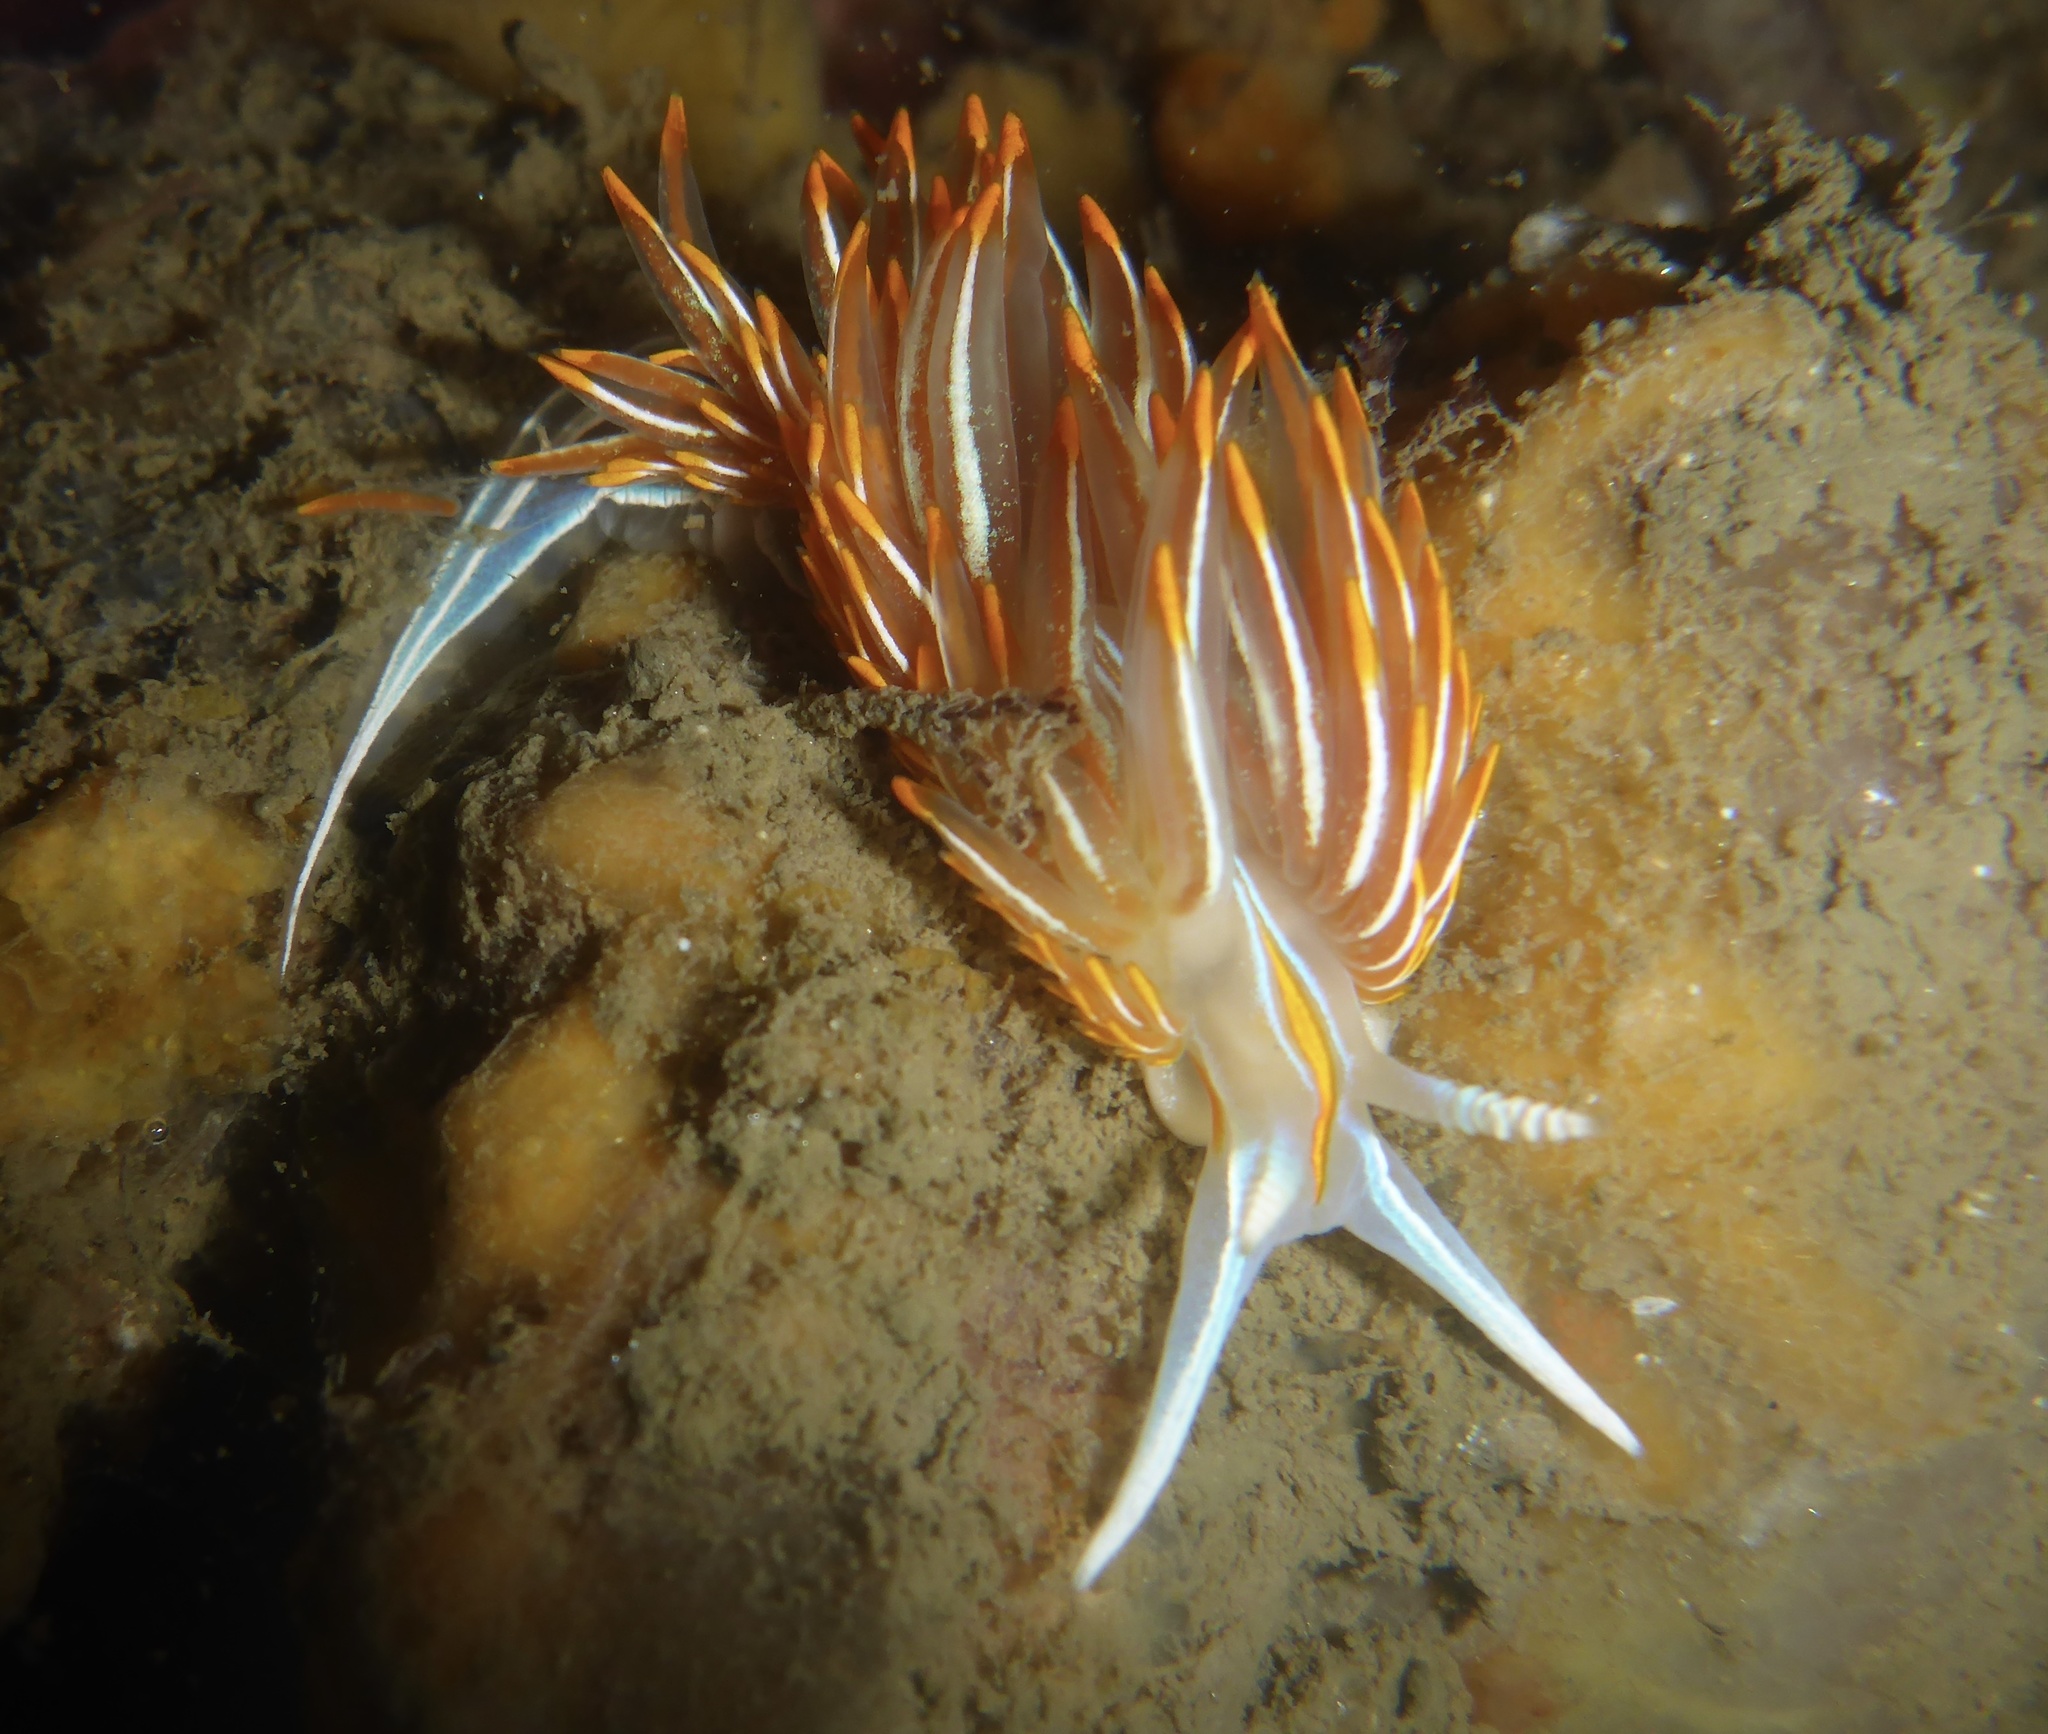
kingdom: Animalia
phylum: Mollusca
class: Gastropoda
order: Nudibranchia
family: Myrrhinidae
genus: Hermissenda
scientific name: Hermissenda crassicornis
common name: Hermissenda
